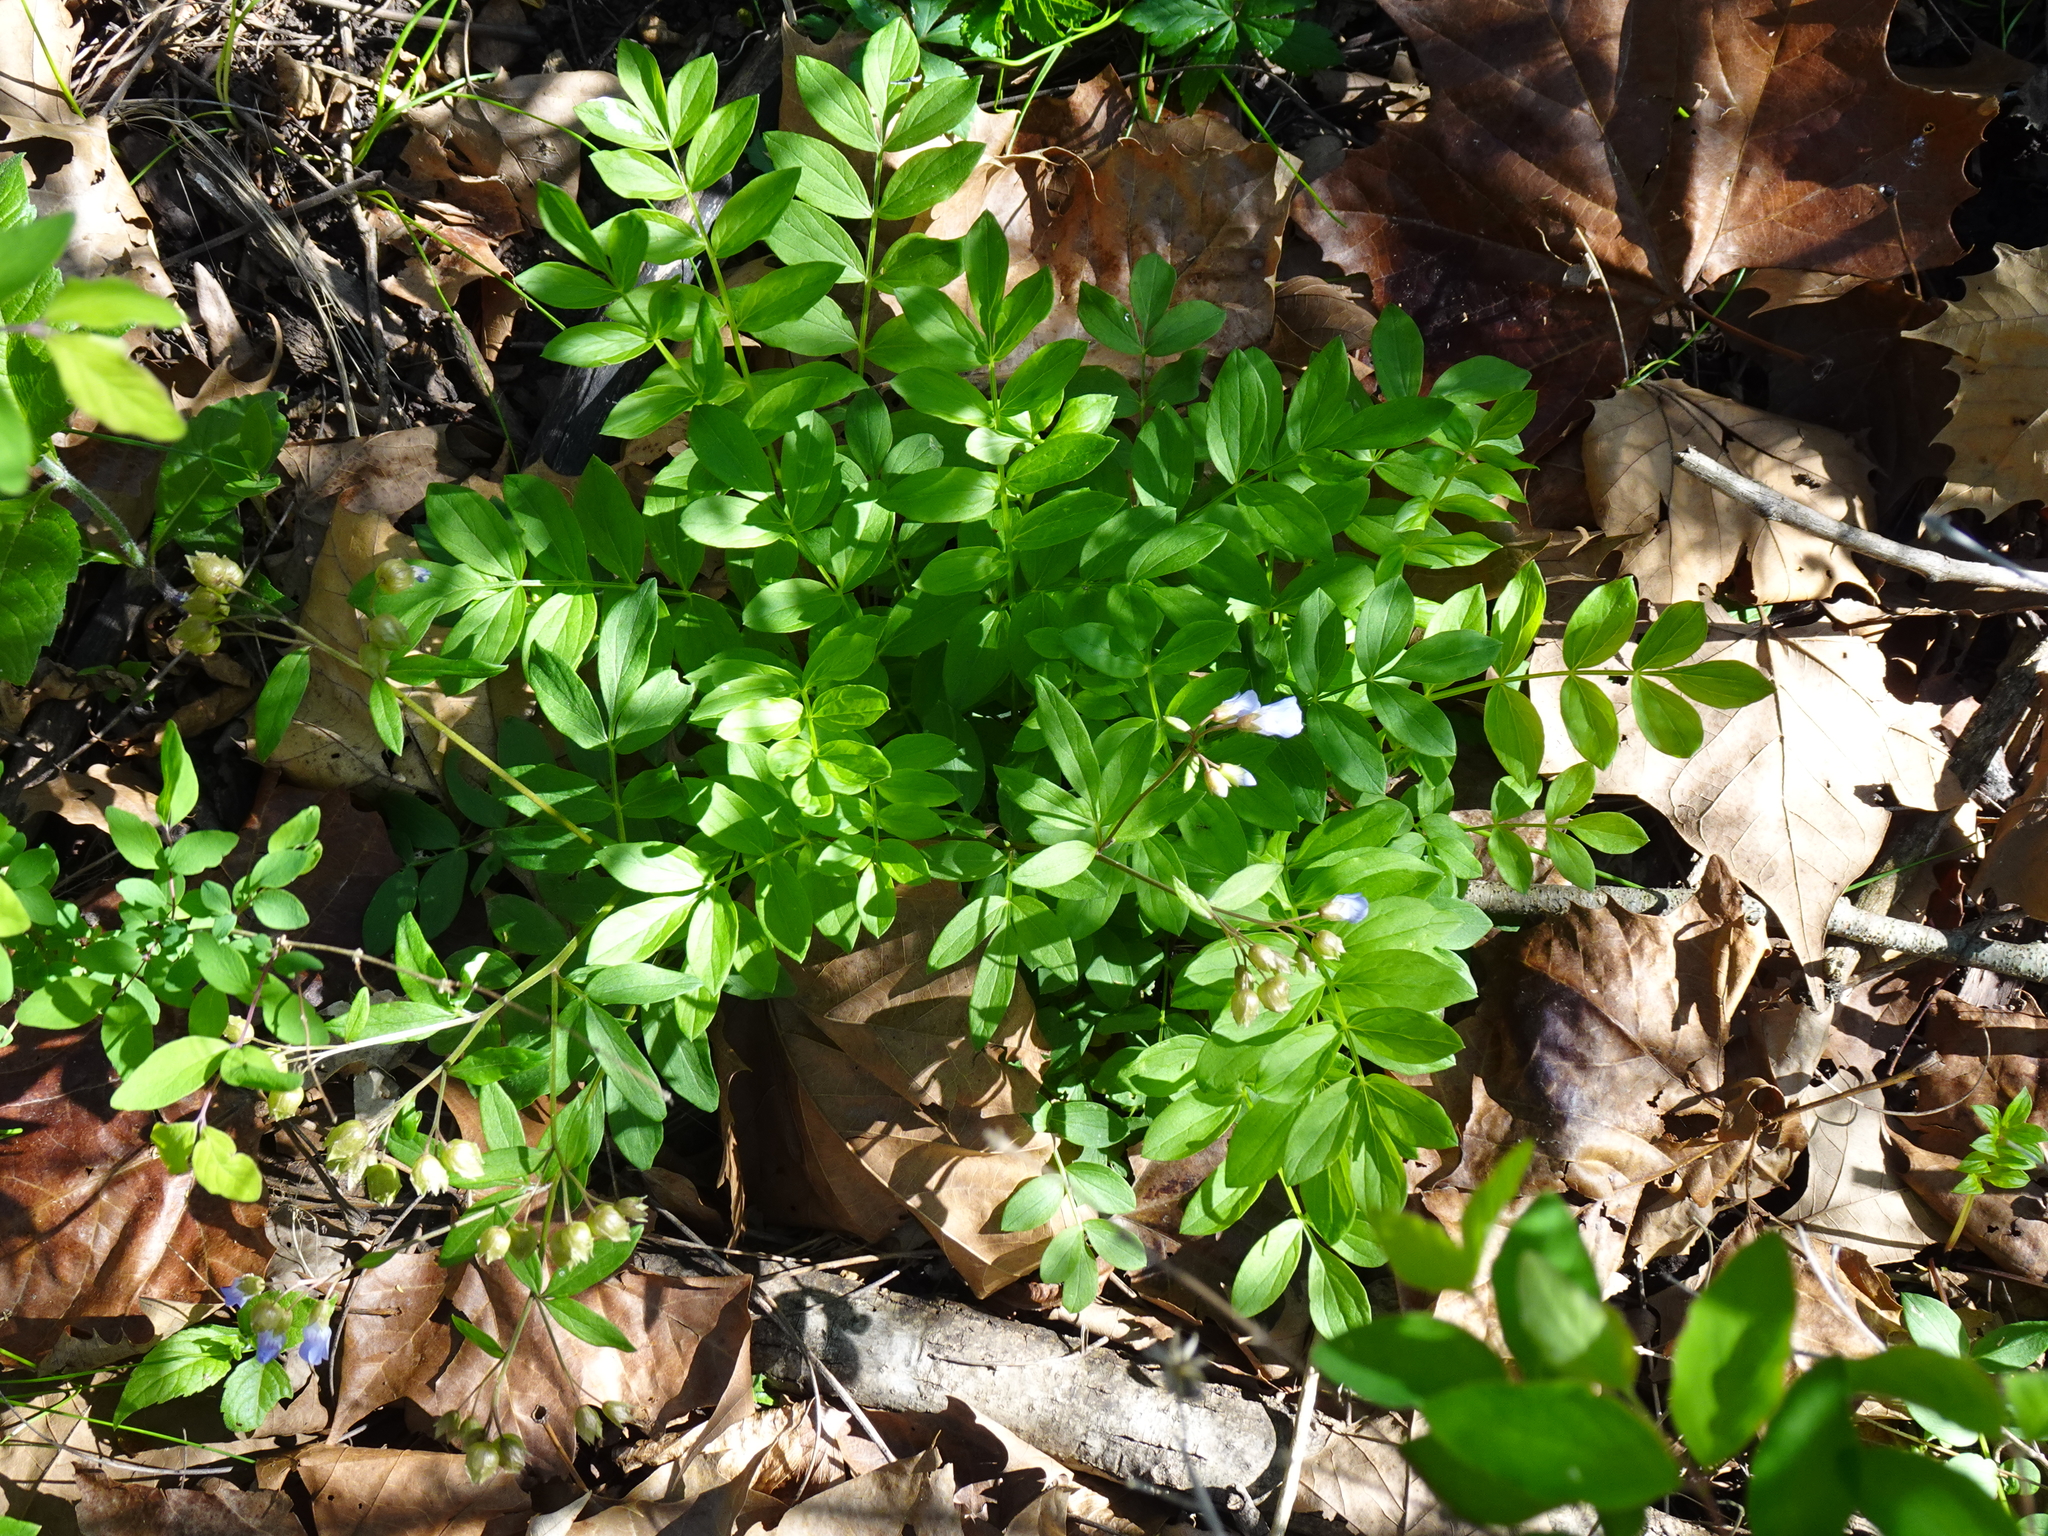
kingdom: Plantae
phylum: Tracheophyta
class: Magnoliopsida
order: Ericales
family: Polemoniaceae
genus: Polemonium
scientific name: Polemonium reptans
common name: Creeping jacob's-ladder
